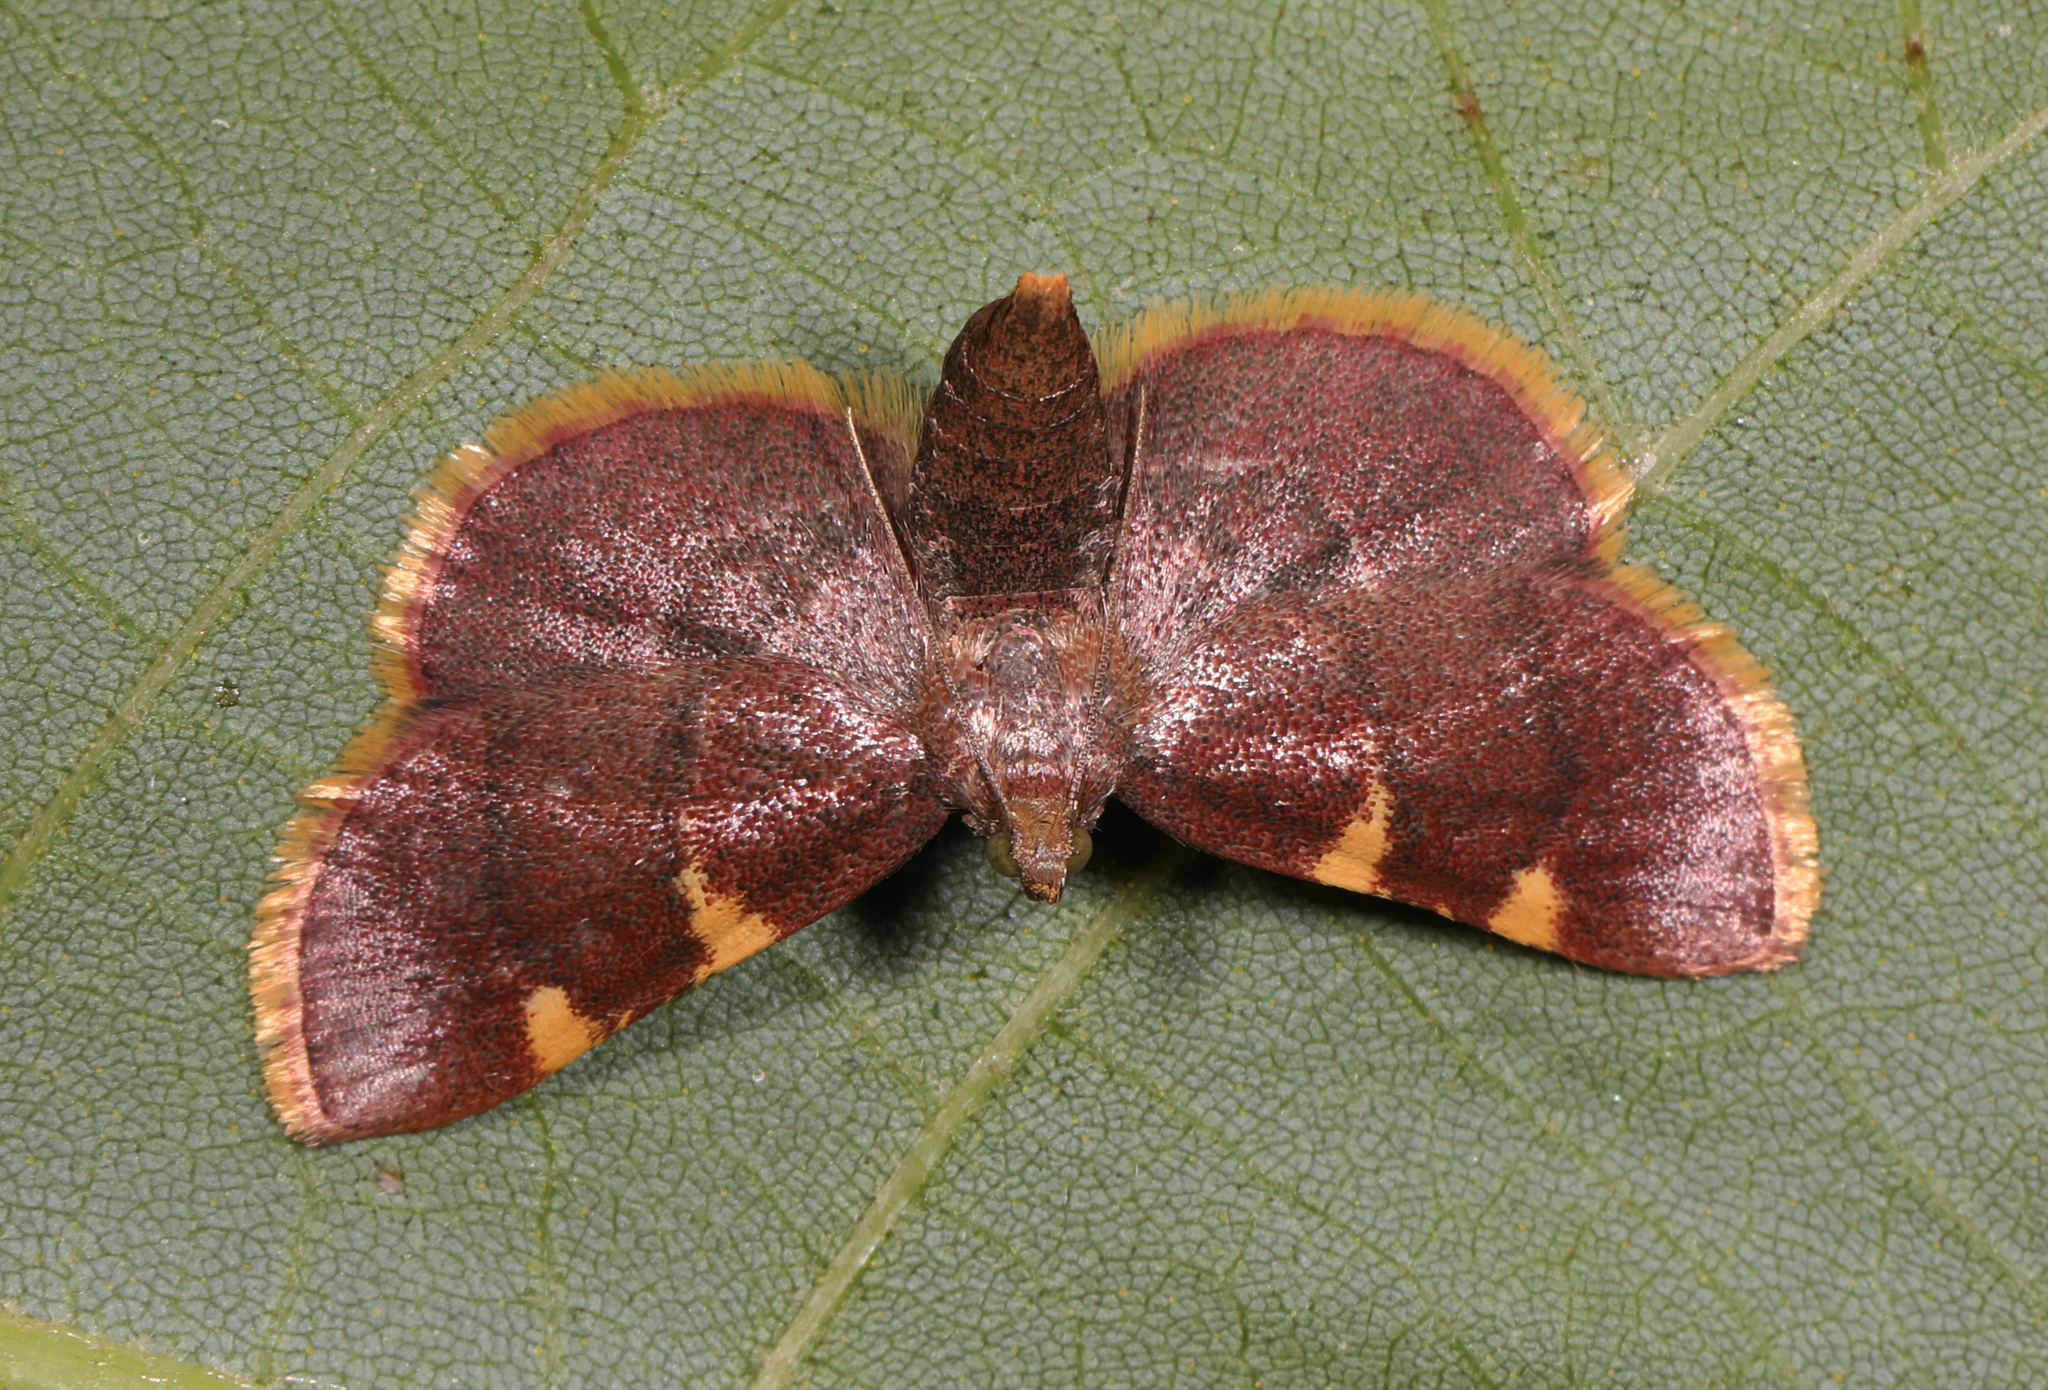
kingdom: Animalia
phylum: Arthropoda
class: Insecta
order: Lepidoptera
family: Pyralidae
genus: Hypsopygia
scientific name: Hypsopygia olinalis
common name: Yellow-fringed dolichomia moth
